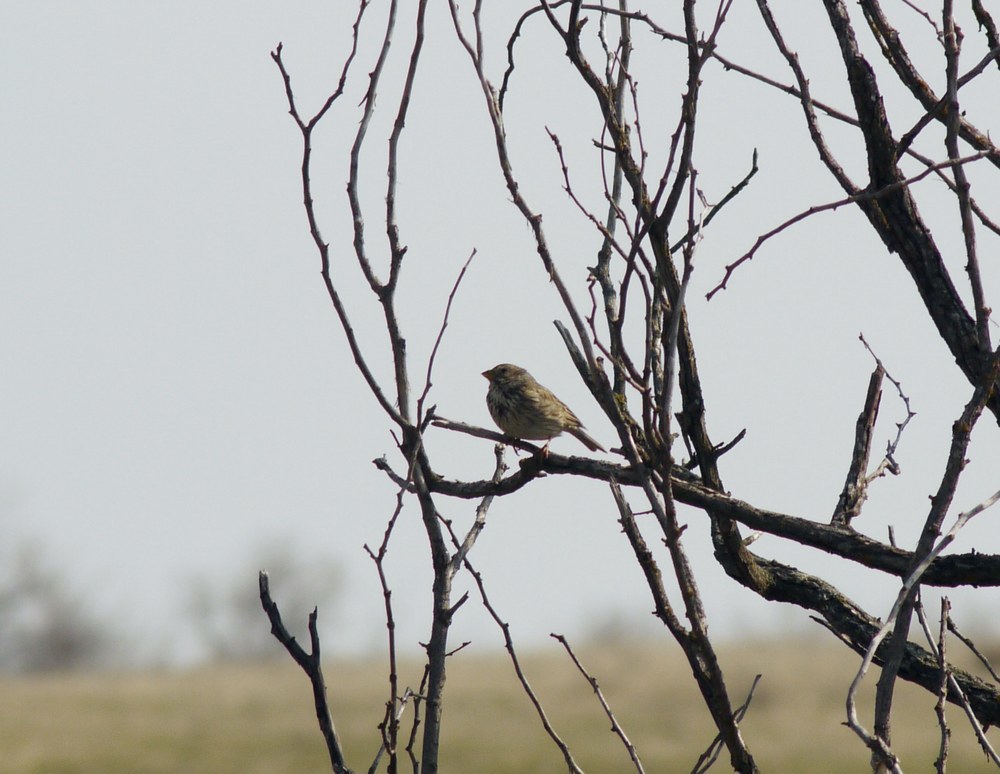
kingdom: Animalia
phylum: Chordata
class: Aves
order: Passeriformes
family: Emberizidae
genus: Emberiza
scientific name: Emberiza calandra
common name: Corn bunting
